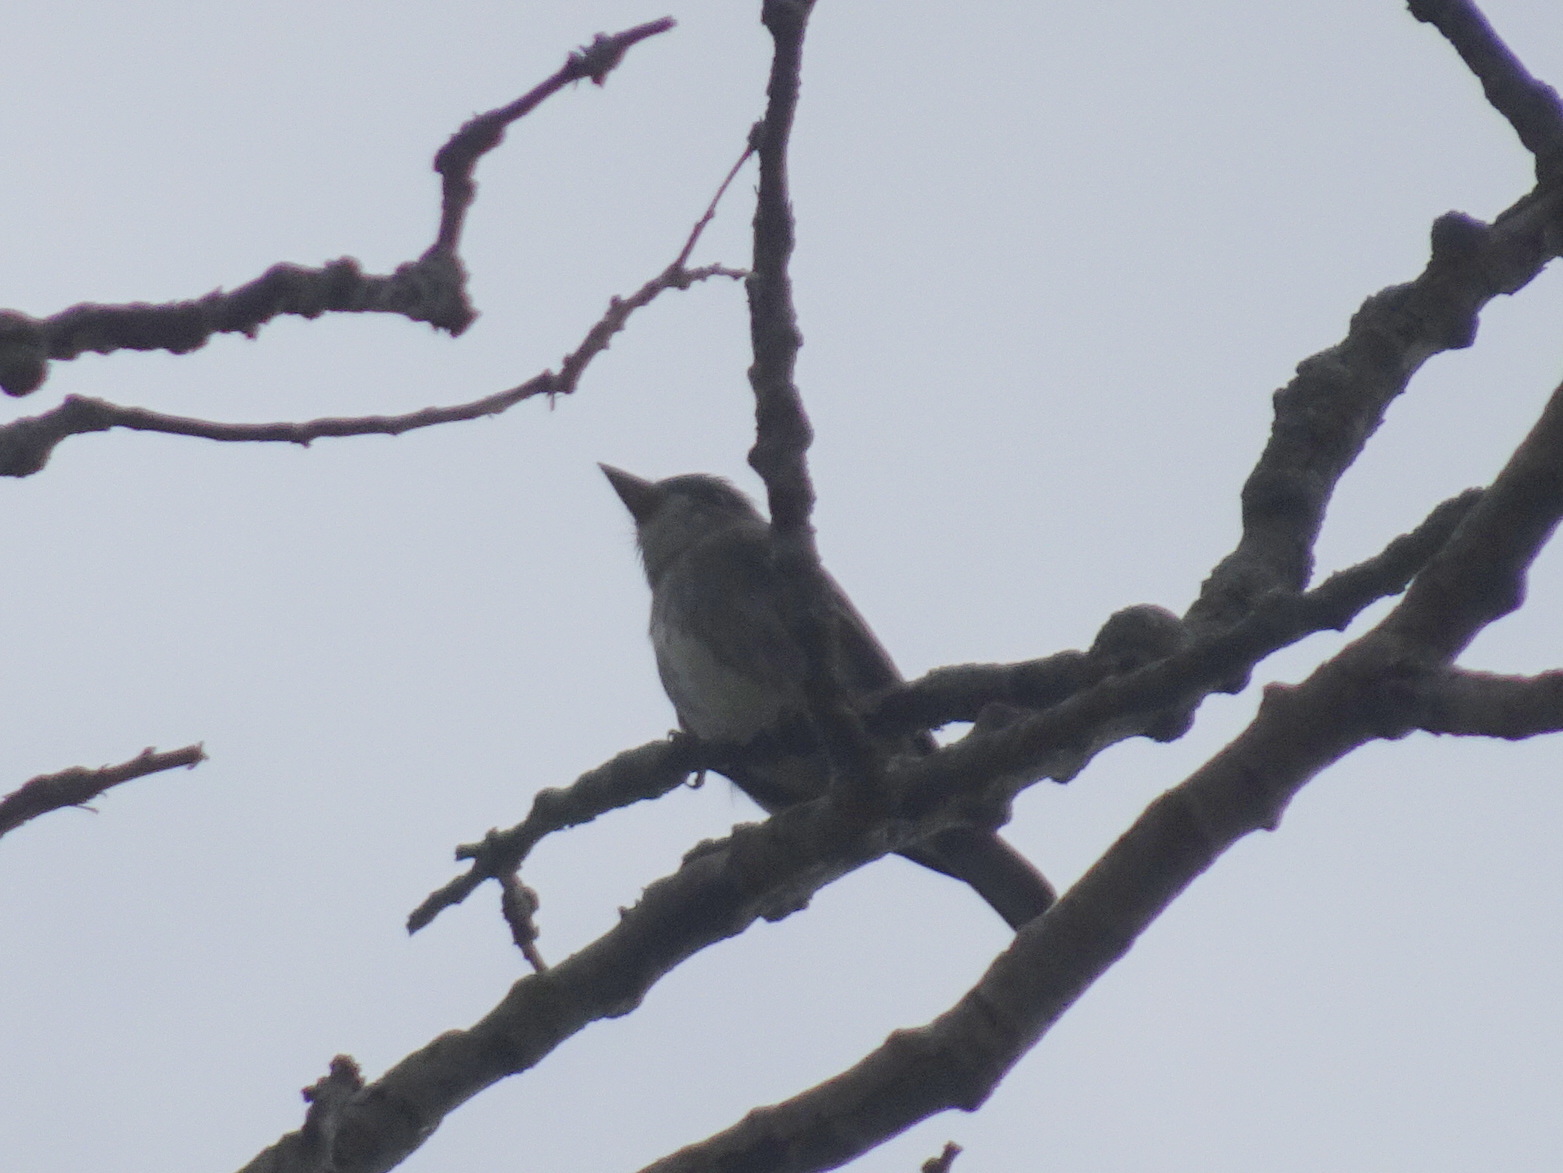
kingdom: Animalia
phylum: Chordata
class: Aves
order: Passeriformes
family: Tyrannidae
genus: Contopus
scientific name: Contopus cooperi
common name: Olive-sided flycatcher
